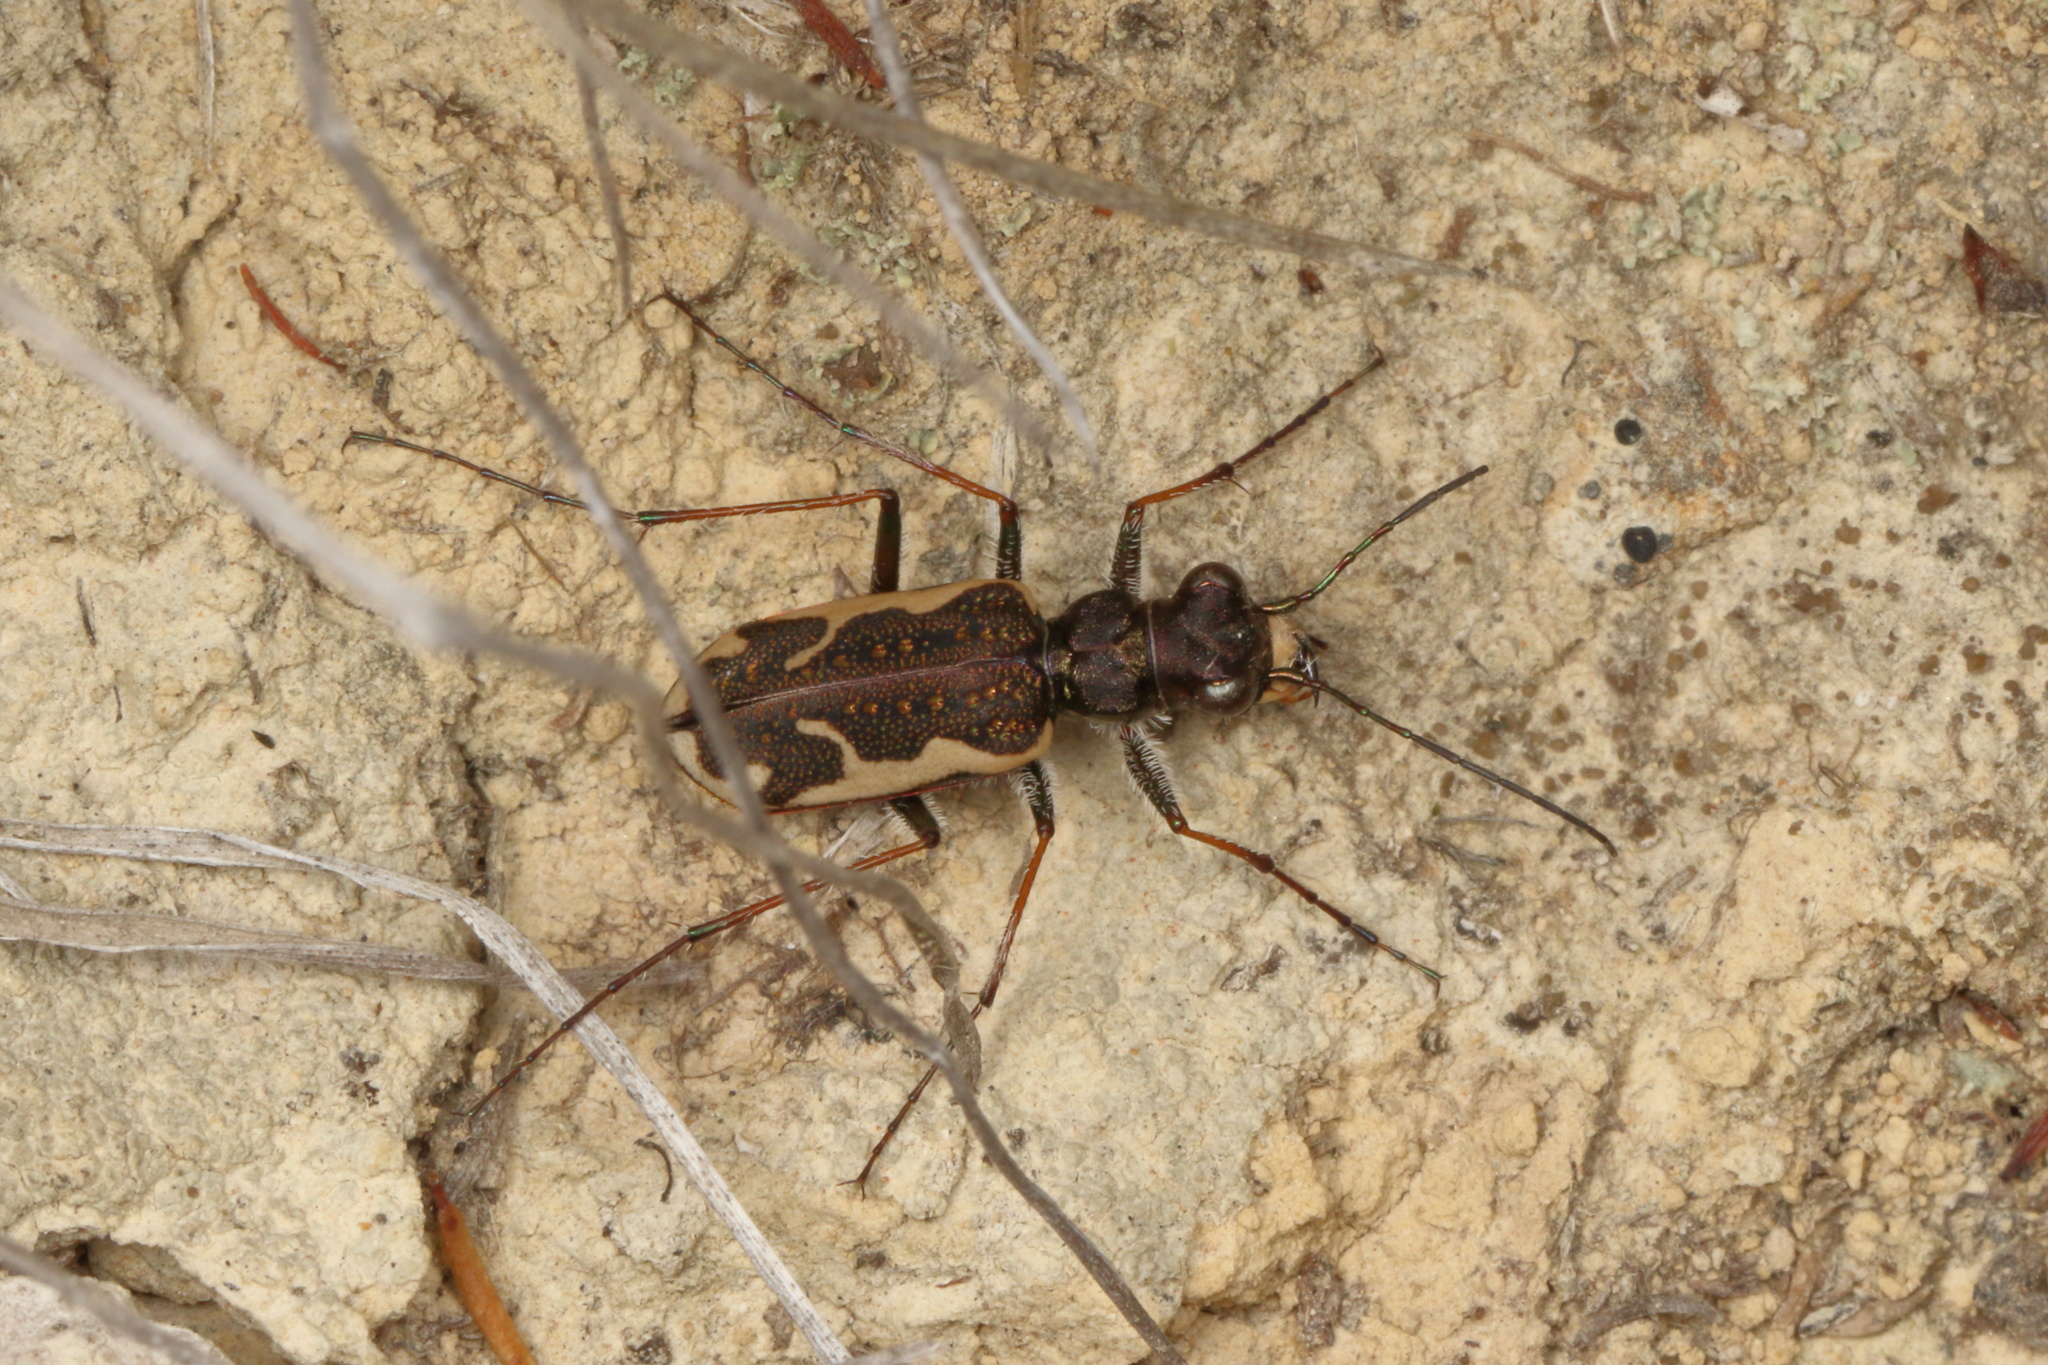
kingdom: Animalia
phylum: Arthropoda
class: Insecta
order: Coleoptera
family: Carabidae
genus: Neocicindela
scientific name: Neocicindela tuberculata
